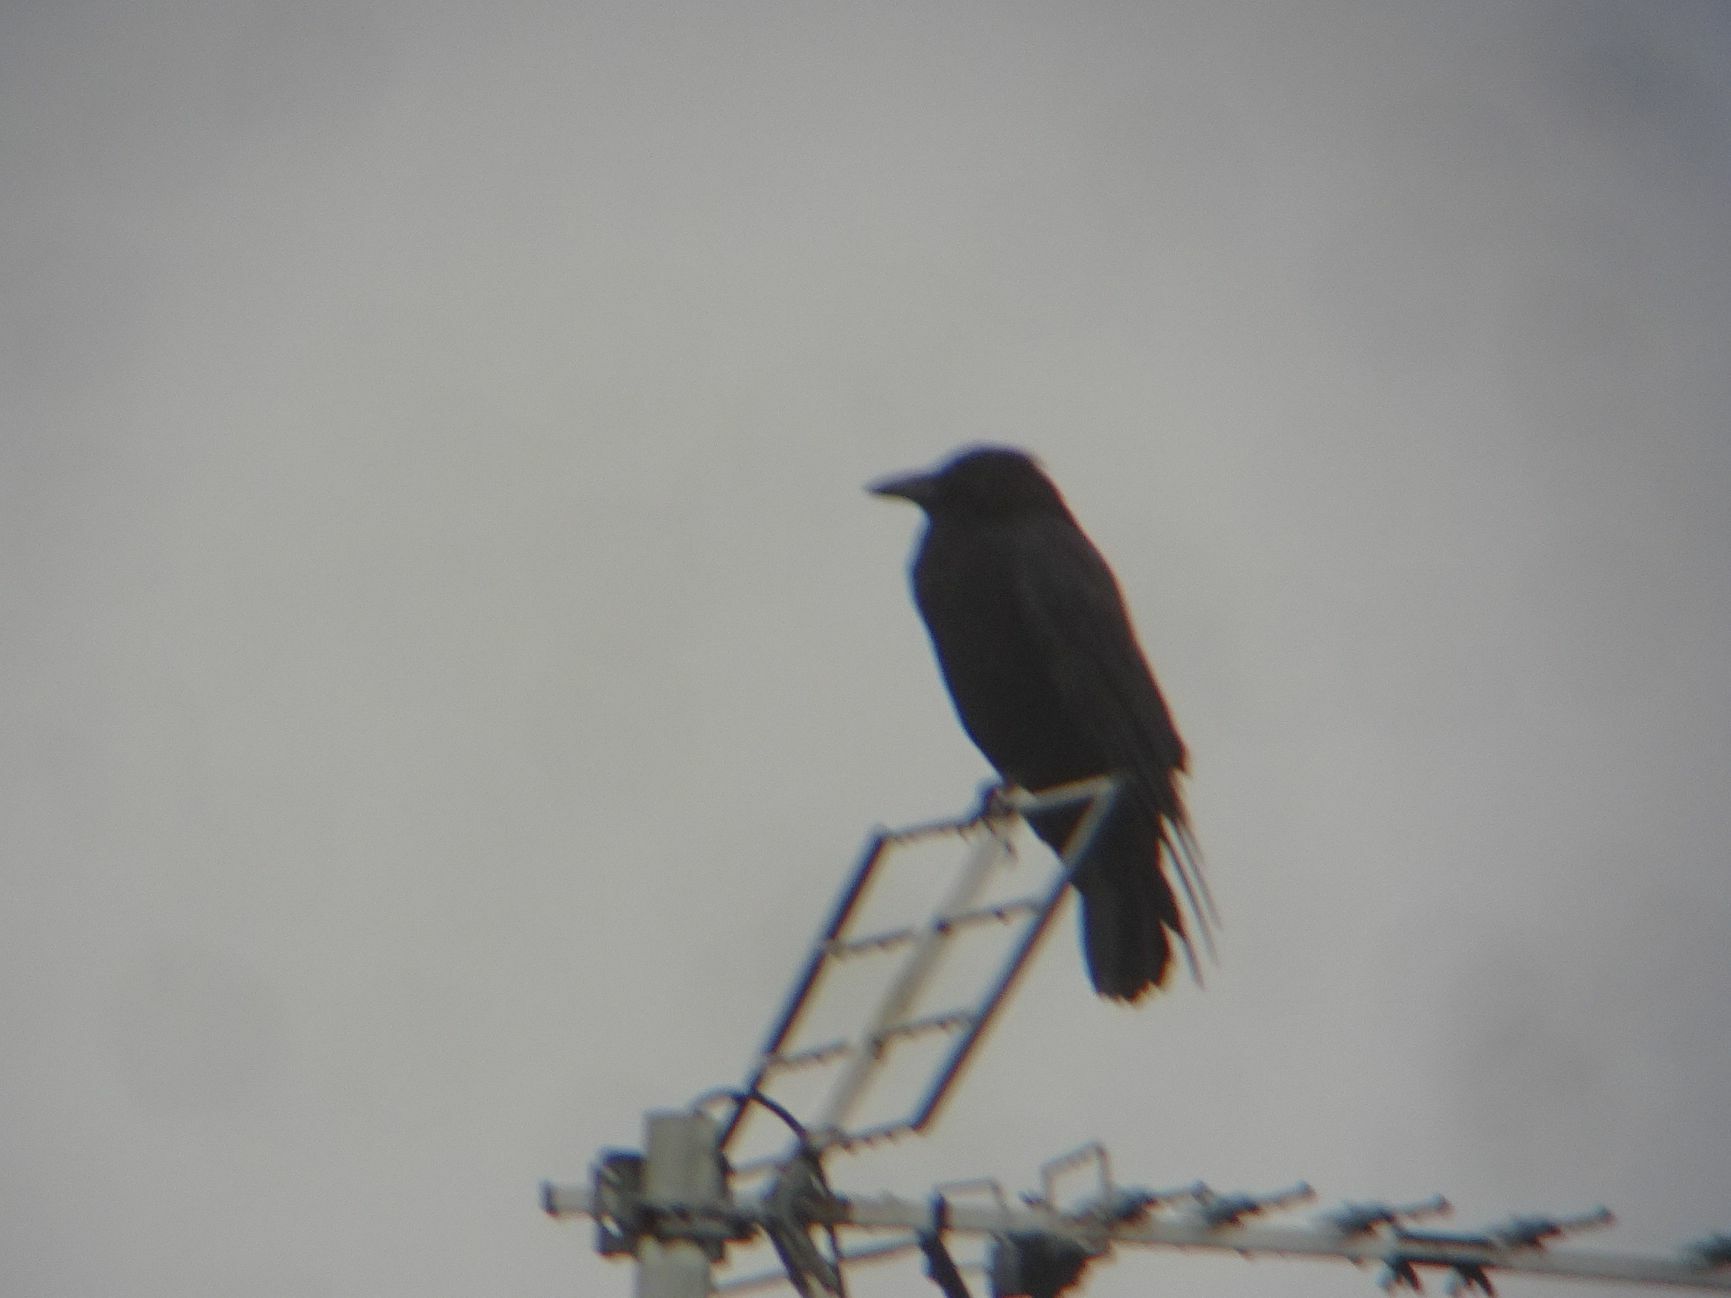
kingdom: Animalia
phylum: Chordata
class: Aves
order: Passeriformes
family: Corvidae
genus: Corvus
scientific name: Corvus corone
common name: Carrion crow
